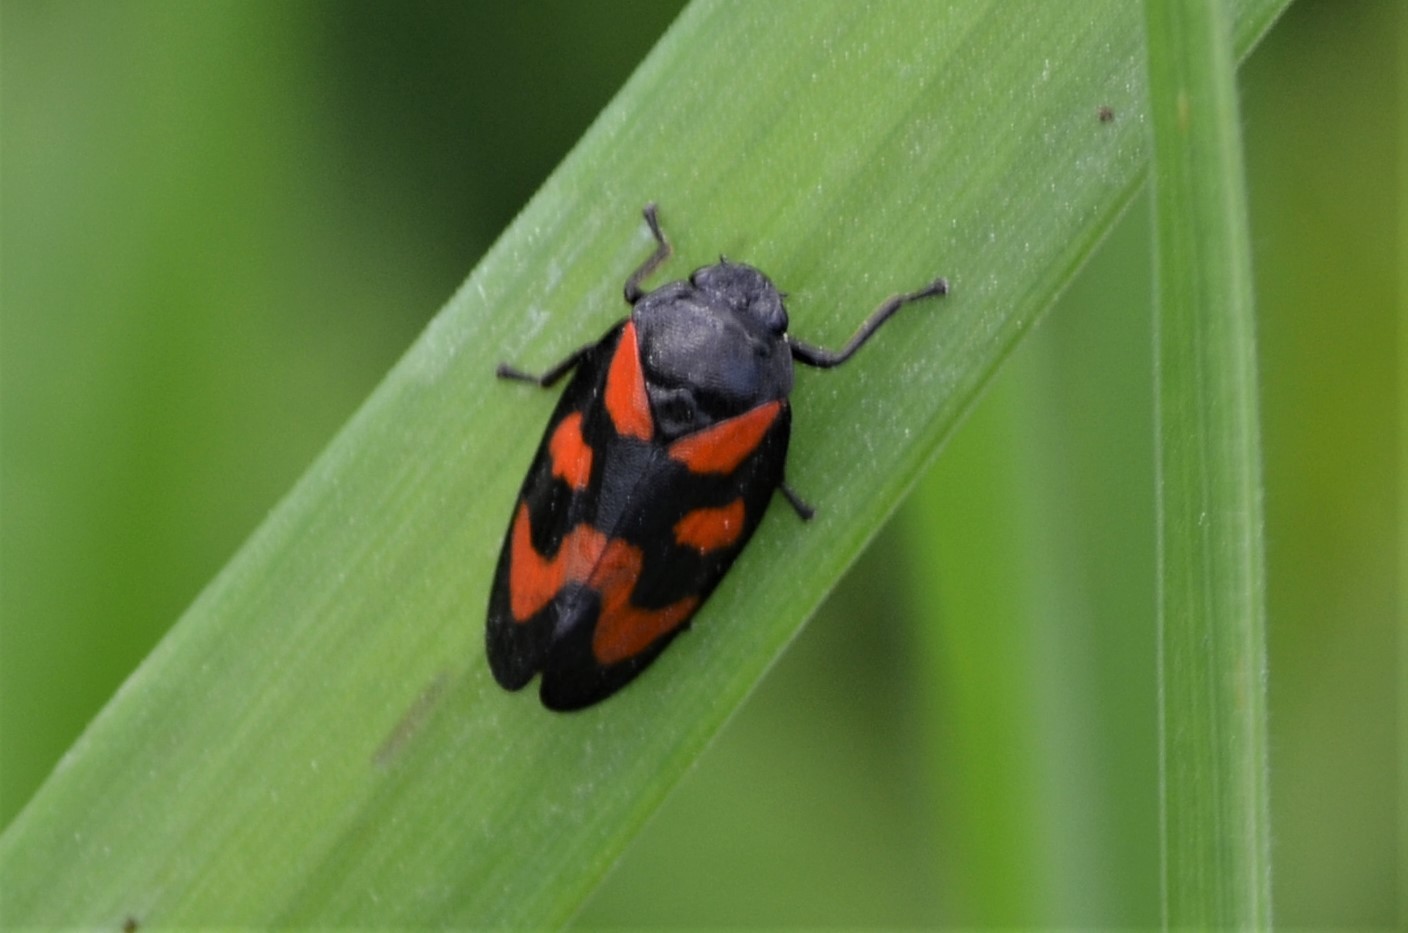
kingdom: Animalia
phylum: Arthropoda
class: Insecta
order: Hemiptera
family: Cercopidae
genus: Cercopis
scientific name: Cercopis vulnerata
